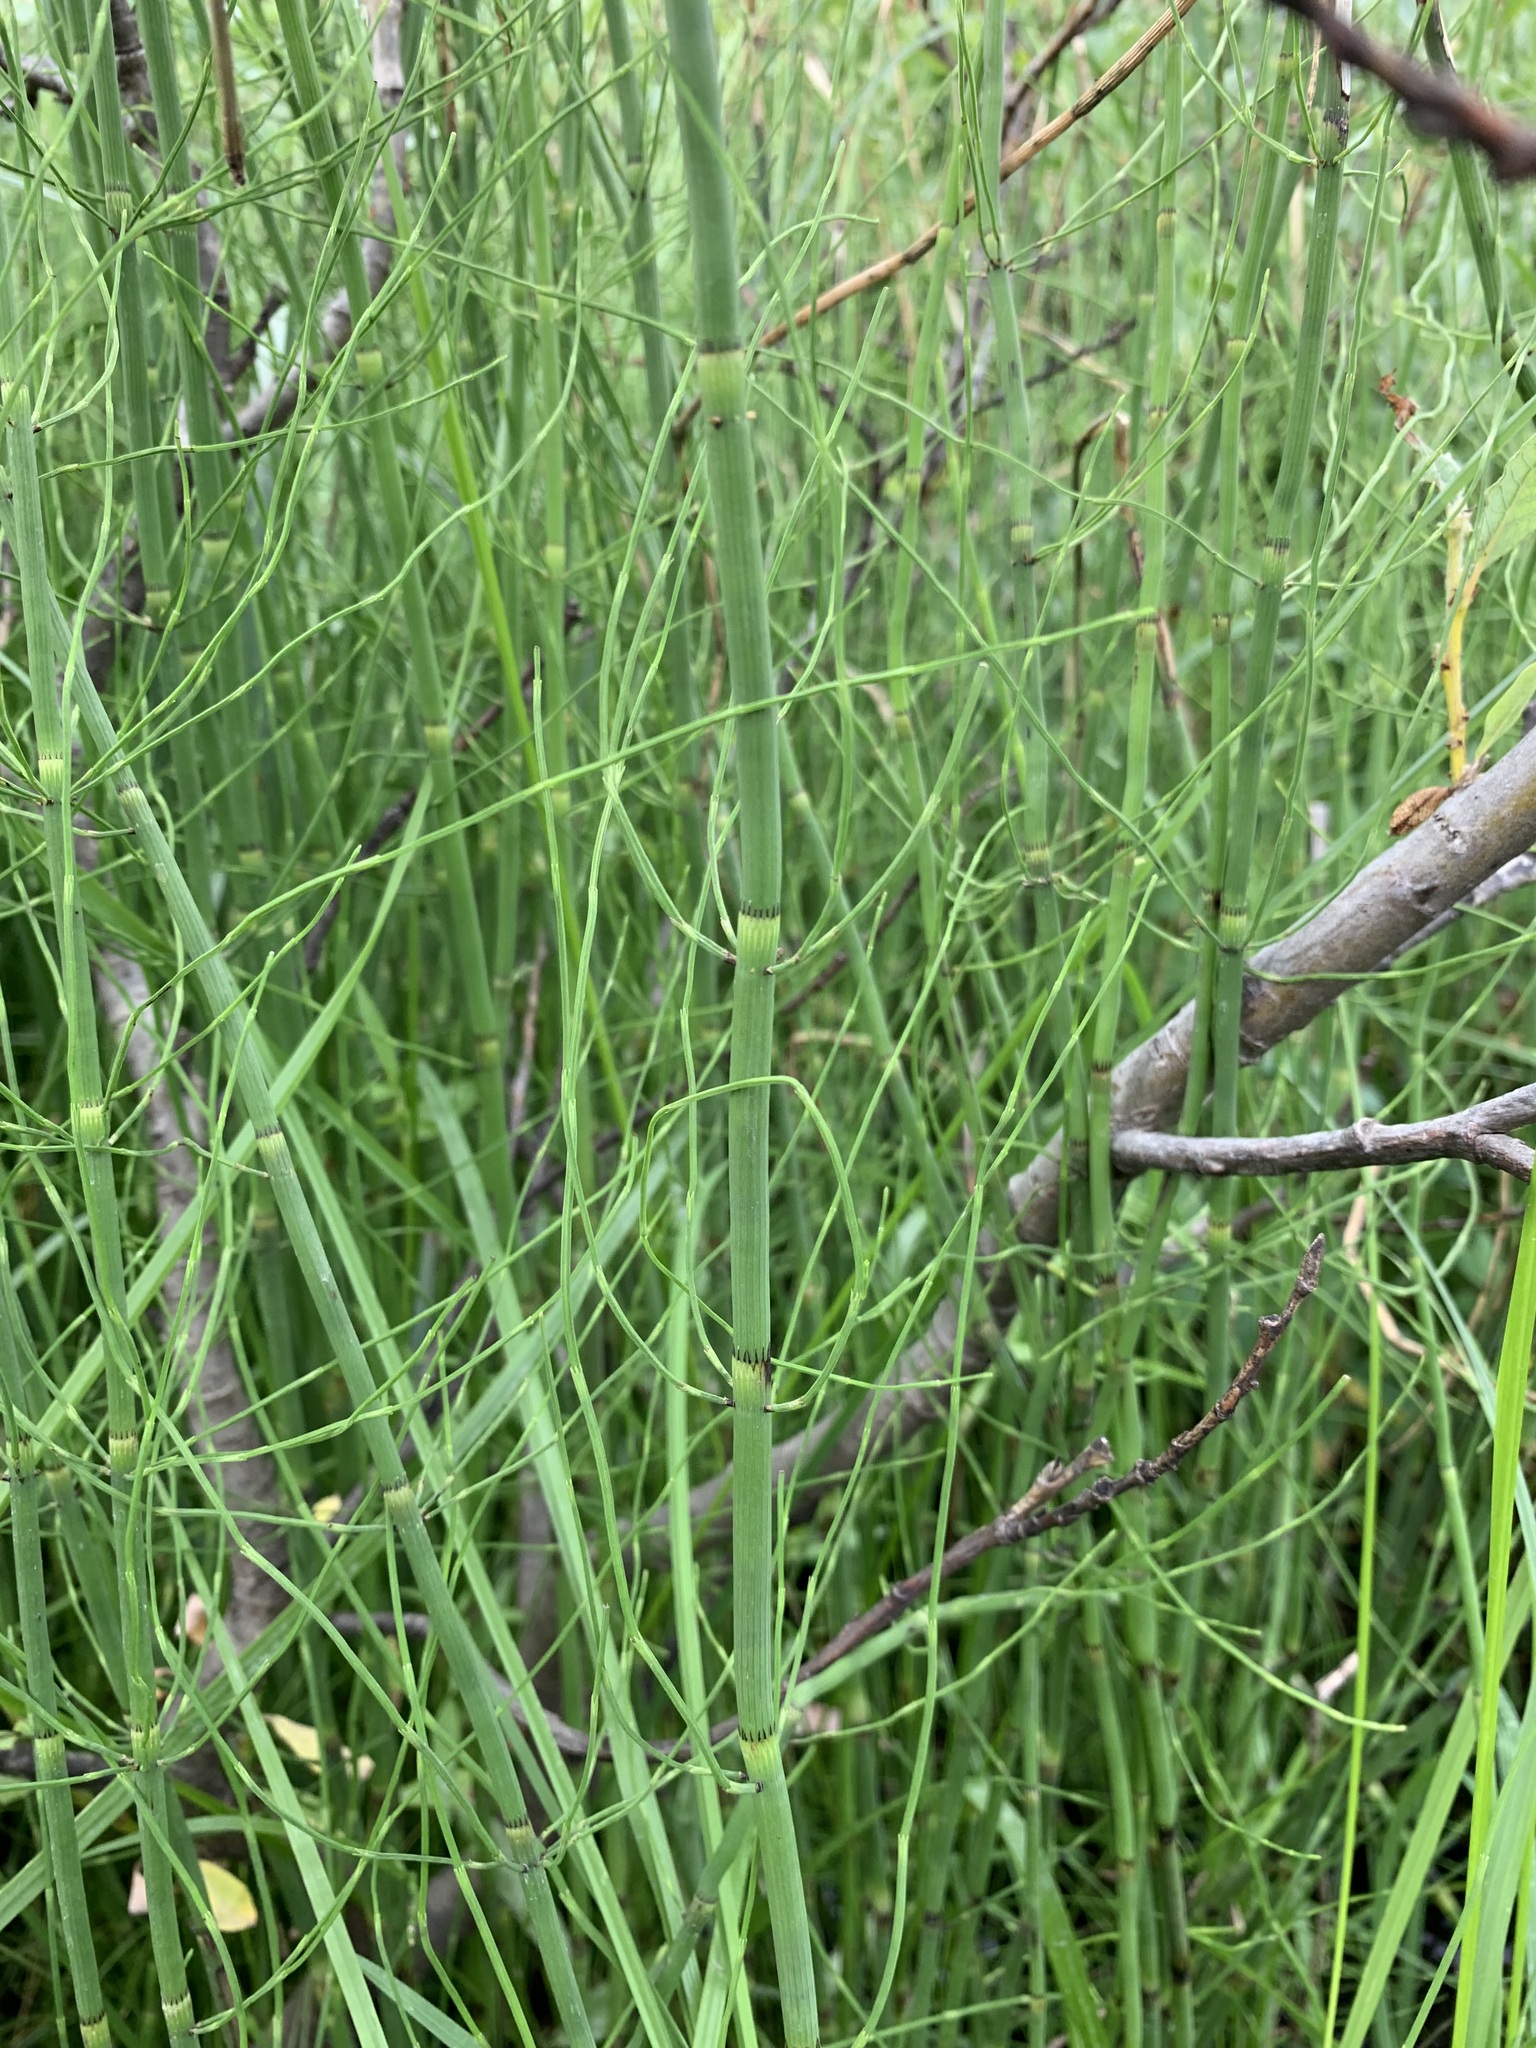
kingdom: Plantae
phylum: Tracheophyta
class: Polypodiopsida
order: Equisetales
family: Equisetaceae
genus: Equisetum
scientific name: Equisetum fluviatile
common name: Water horsetail
